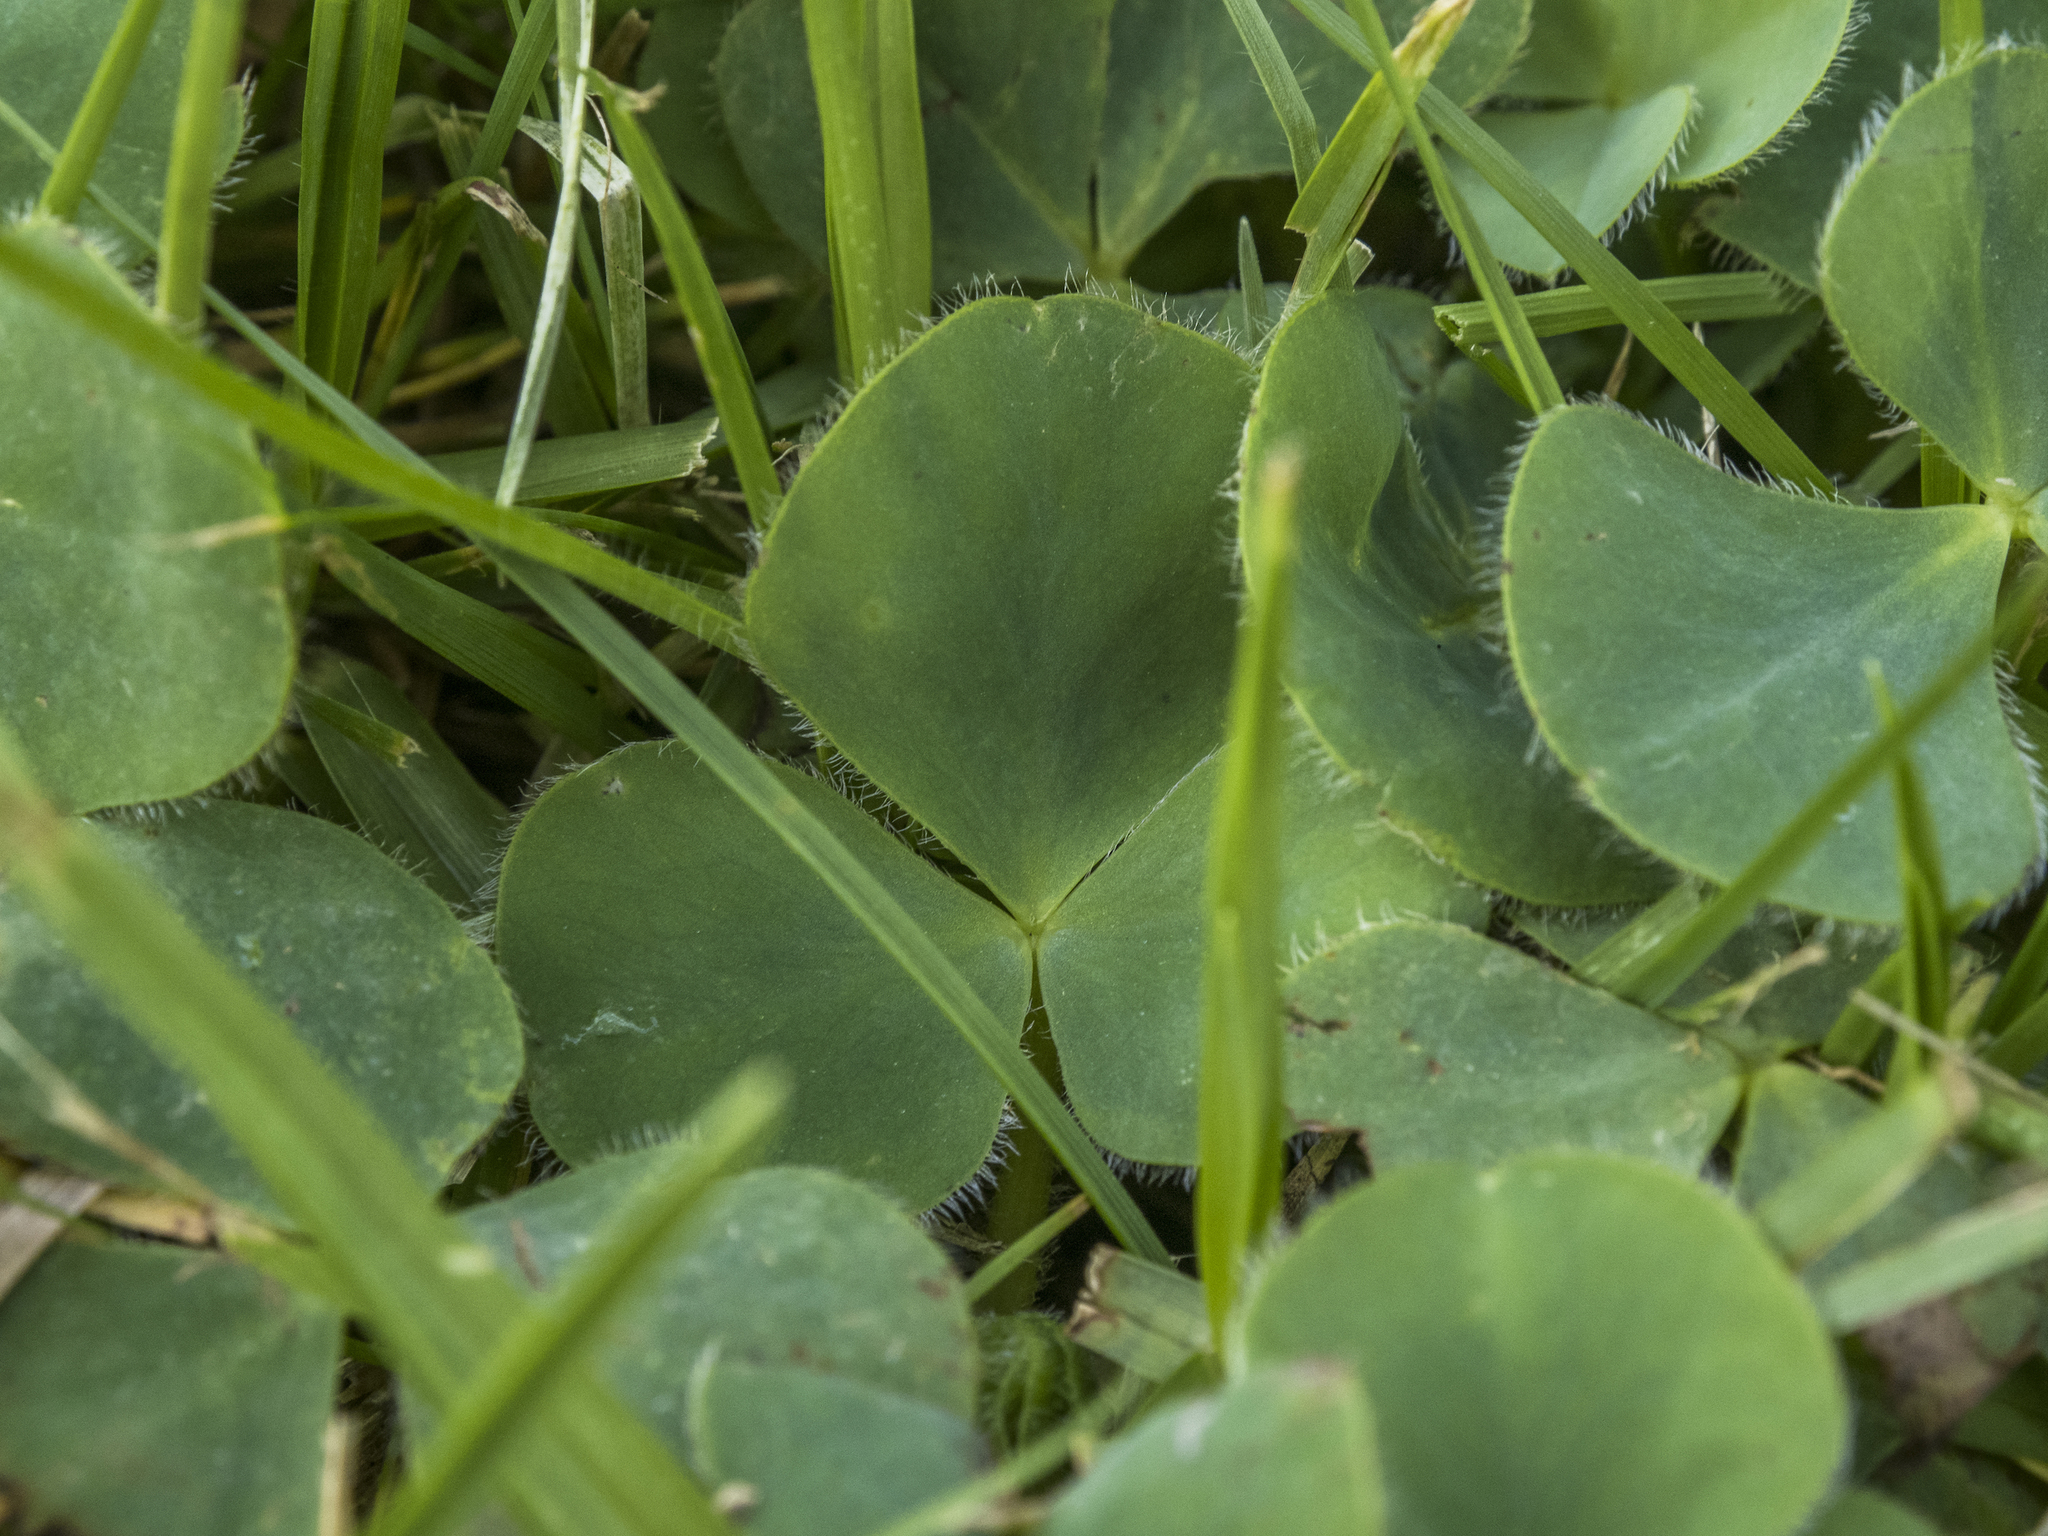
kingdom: Plantae
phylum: Tracheophyta
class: Magnoliopsida
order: Oxalidales
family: Oxalidaceae
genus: Oxalis
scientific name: Oxalis purpurea
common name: Purple woodsorrel
